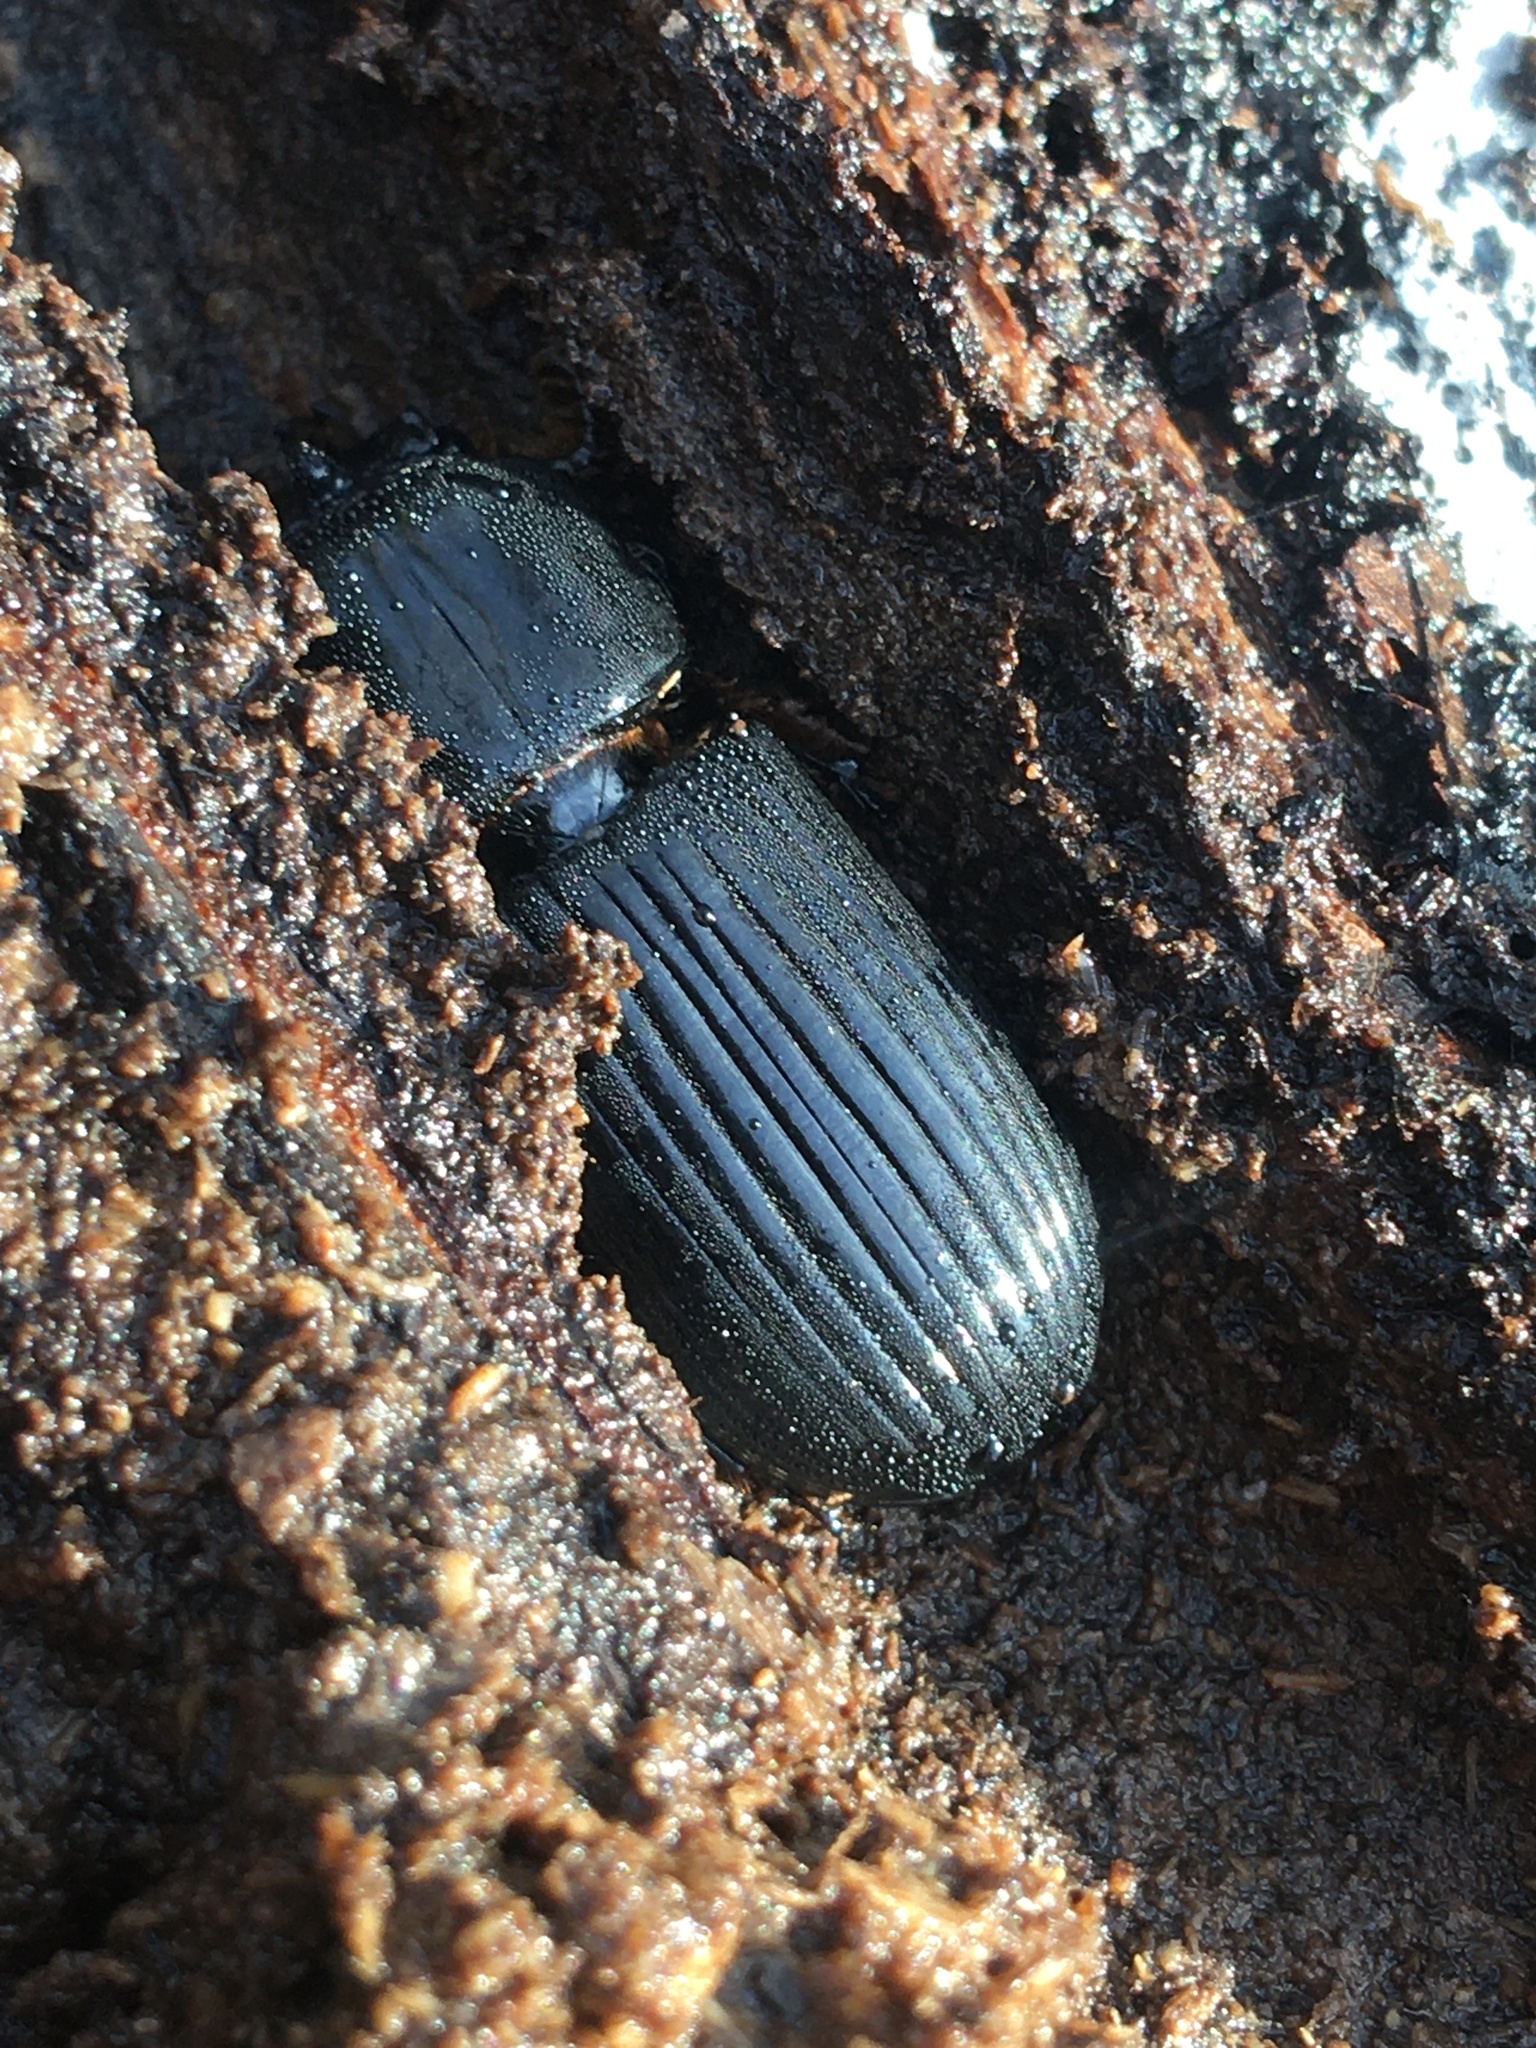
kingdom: Animalia
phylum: Arthropoda
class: Insecta
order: Coleoptera
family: Passalidae
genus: Odontotaenius
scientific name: Odontotaenius disjunctus
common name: Patent leather beetle
